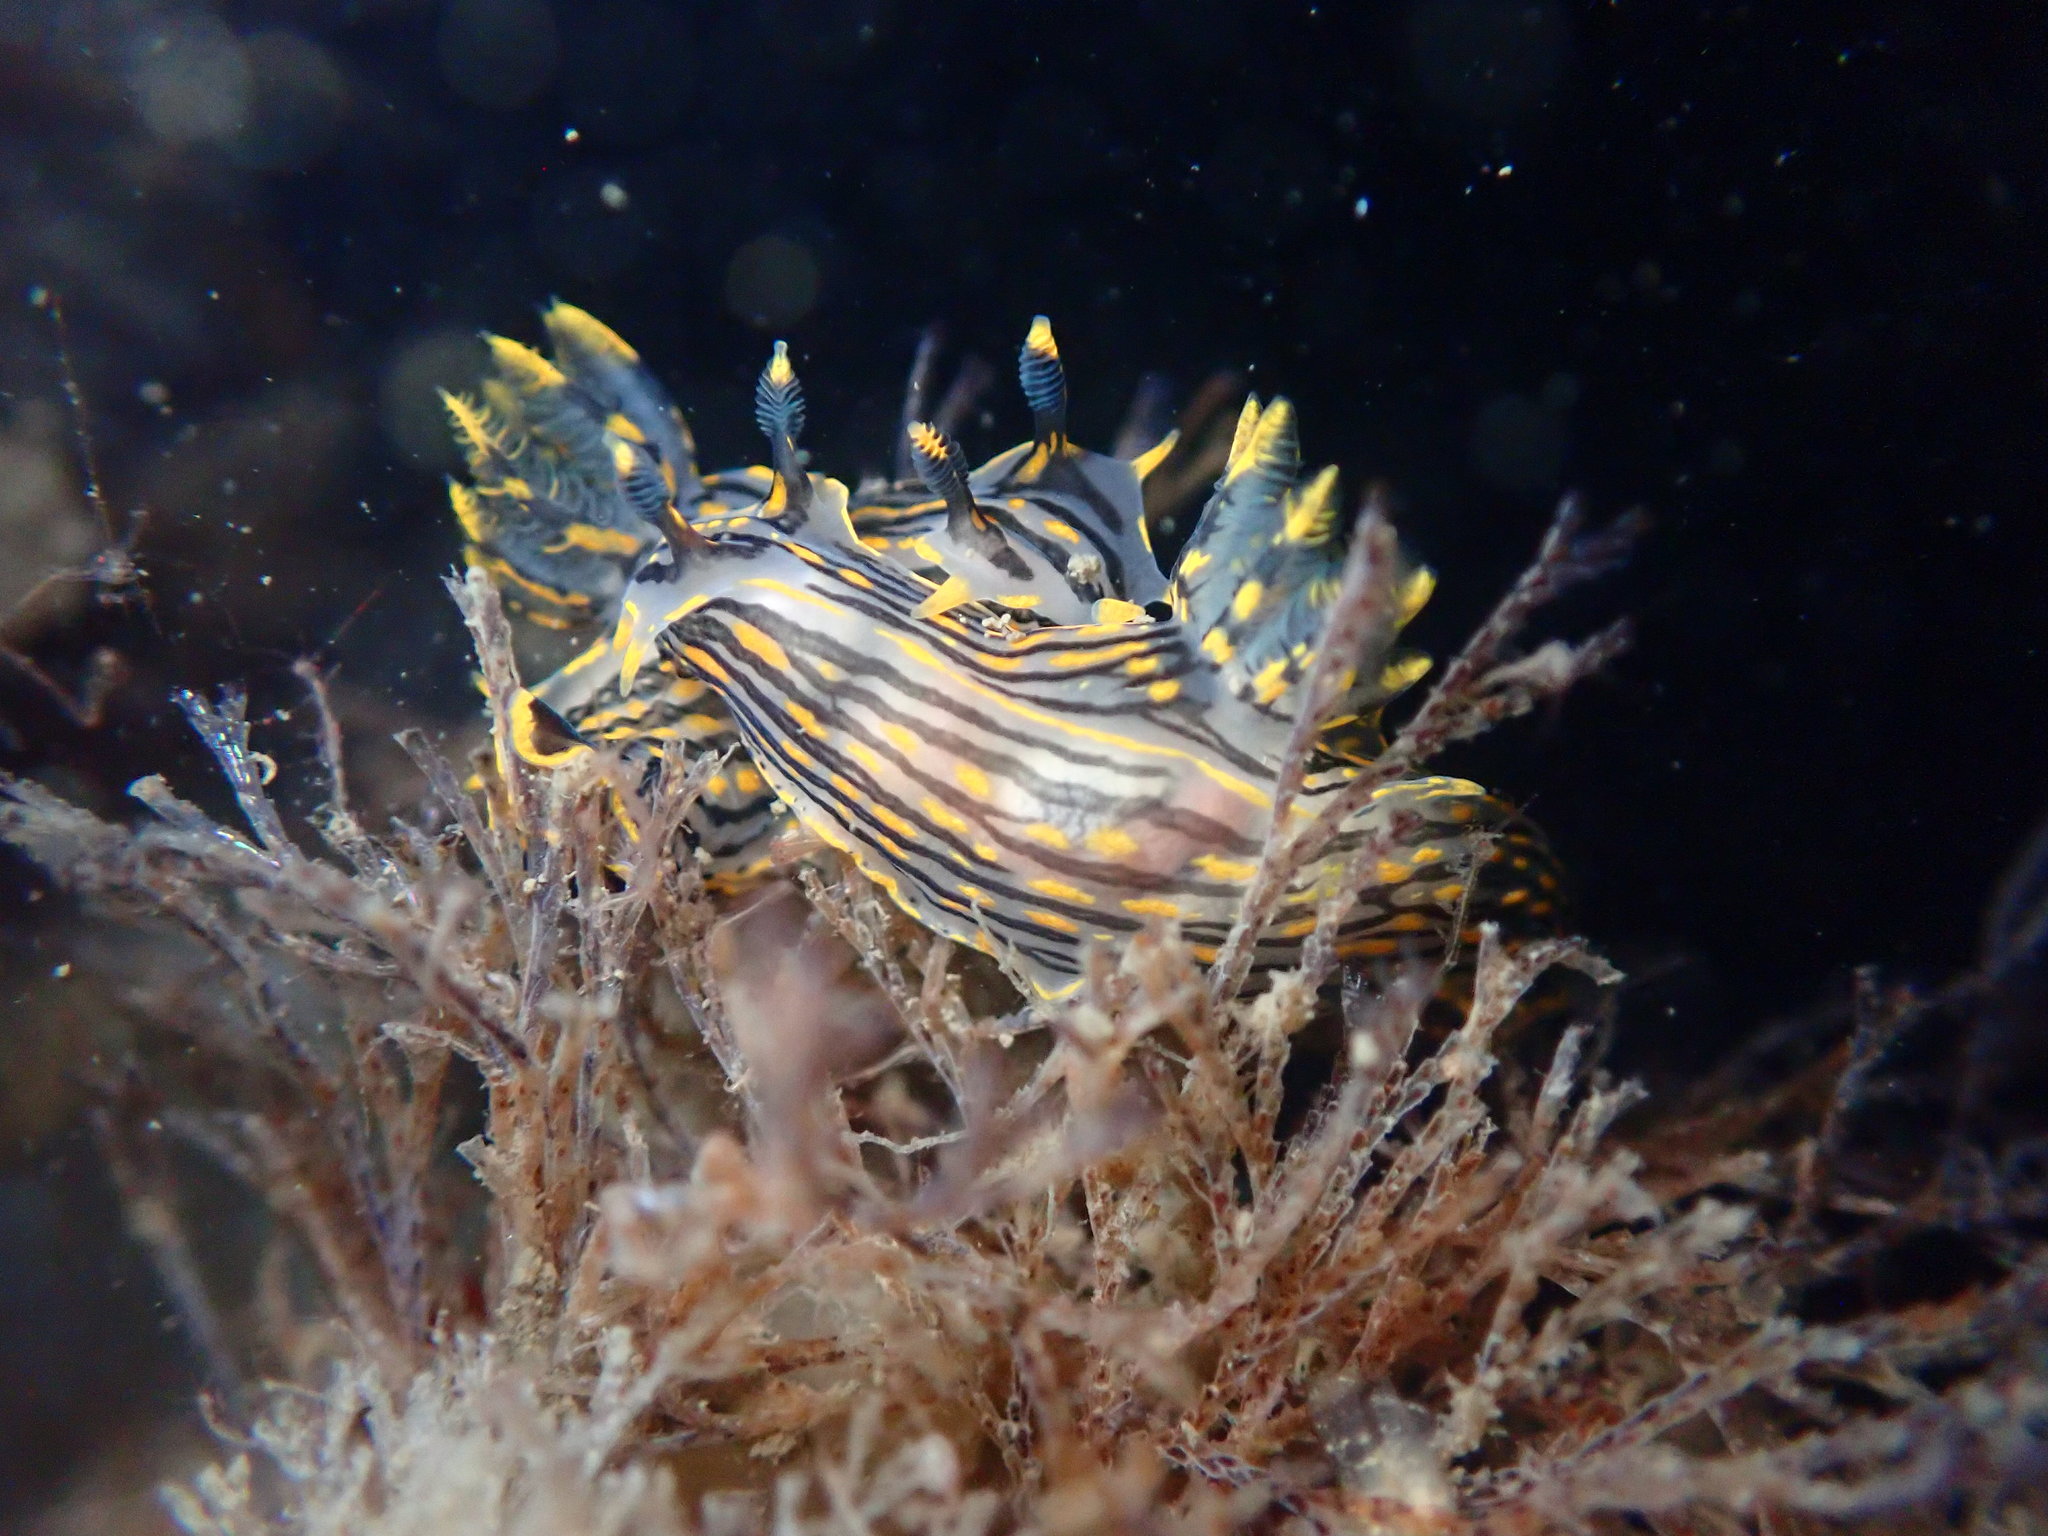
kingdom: Animalia
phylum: Mollusca
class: Gastropoda
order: Nudibranchia
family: Polyceridae
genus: Polycera
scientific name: Polycera atra
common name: Orange-spike polycera
